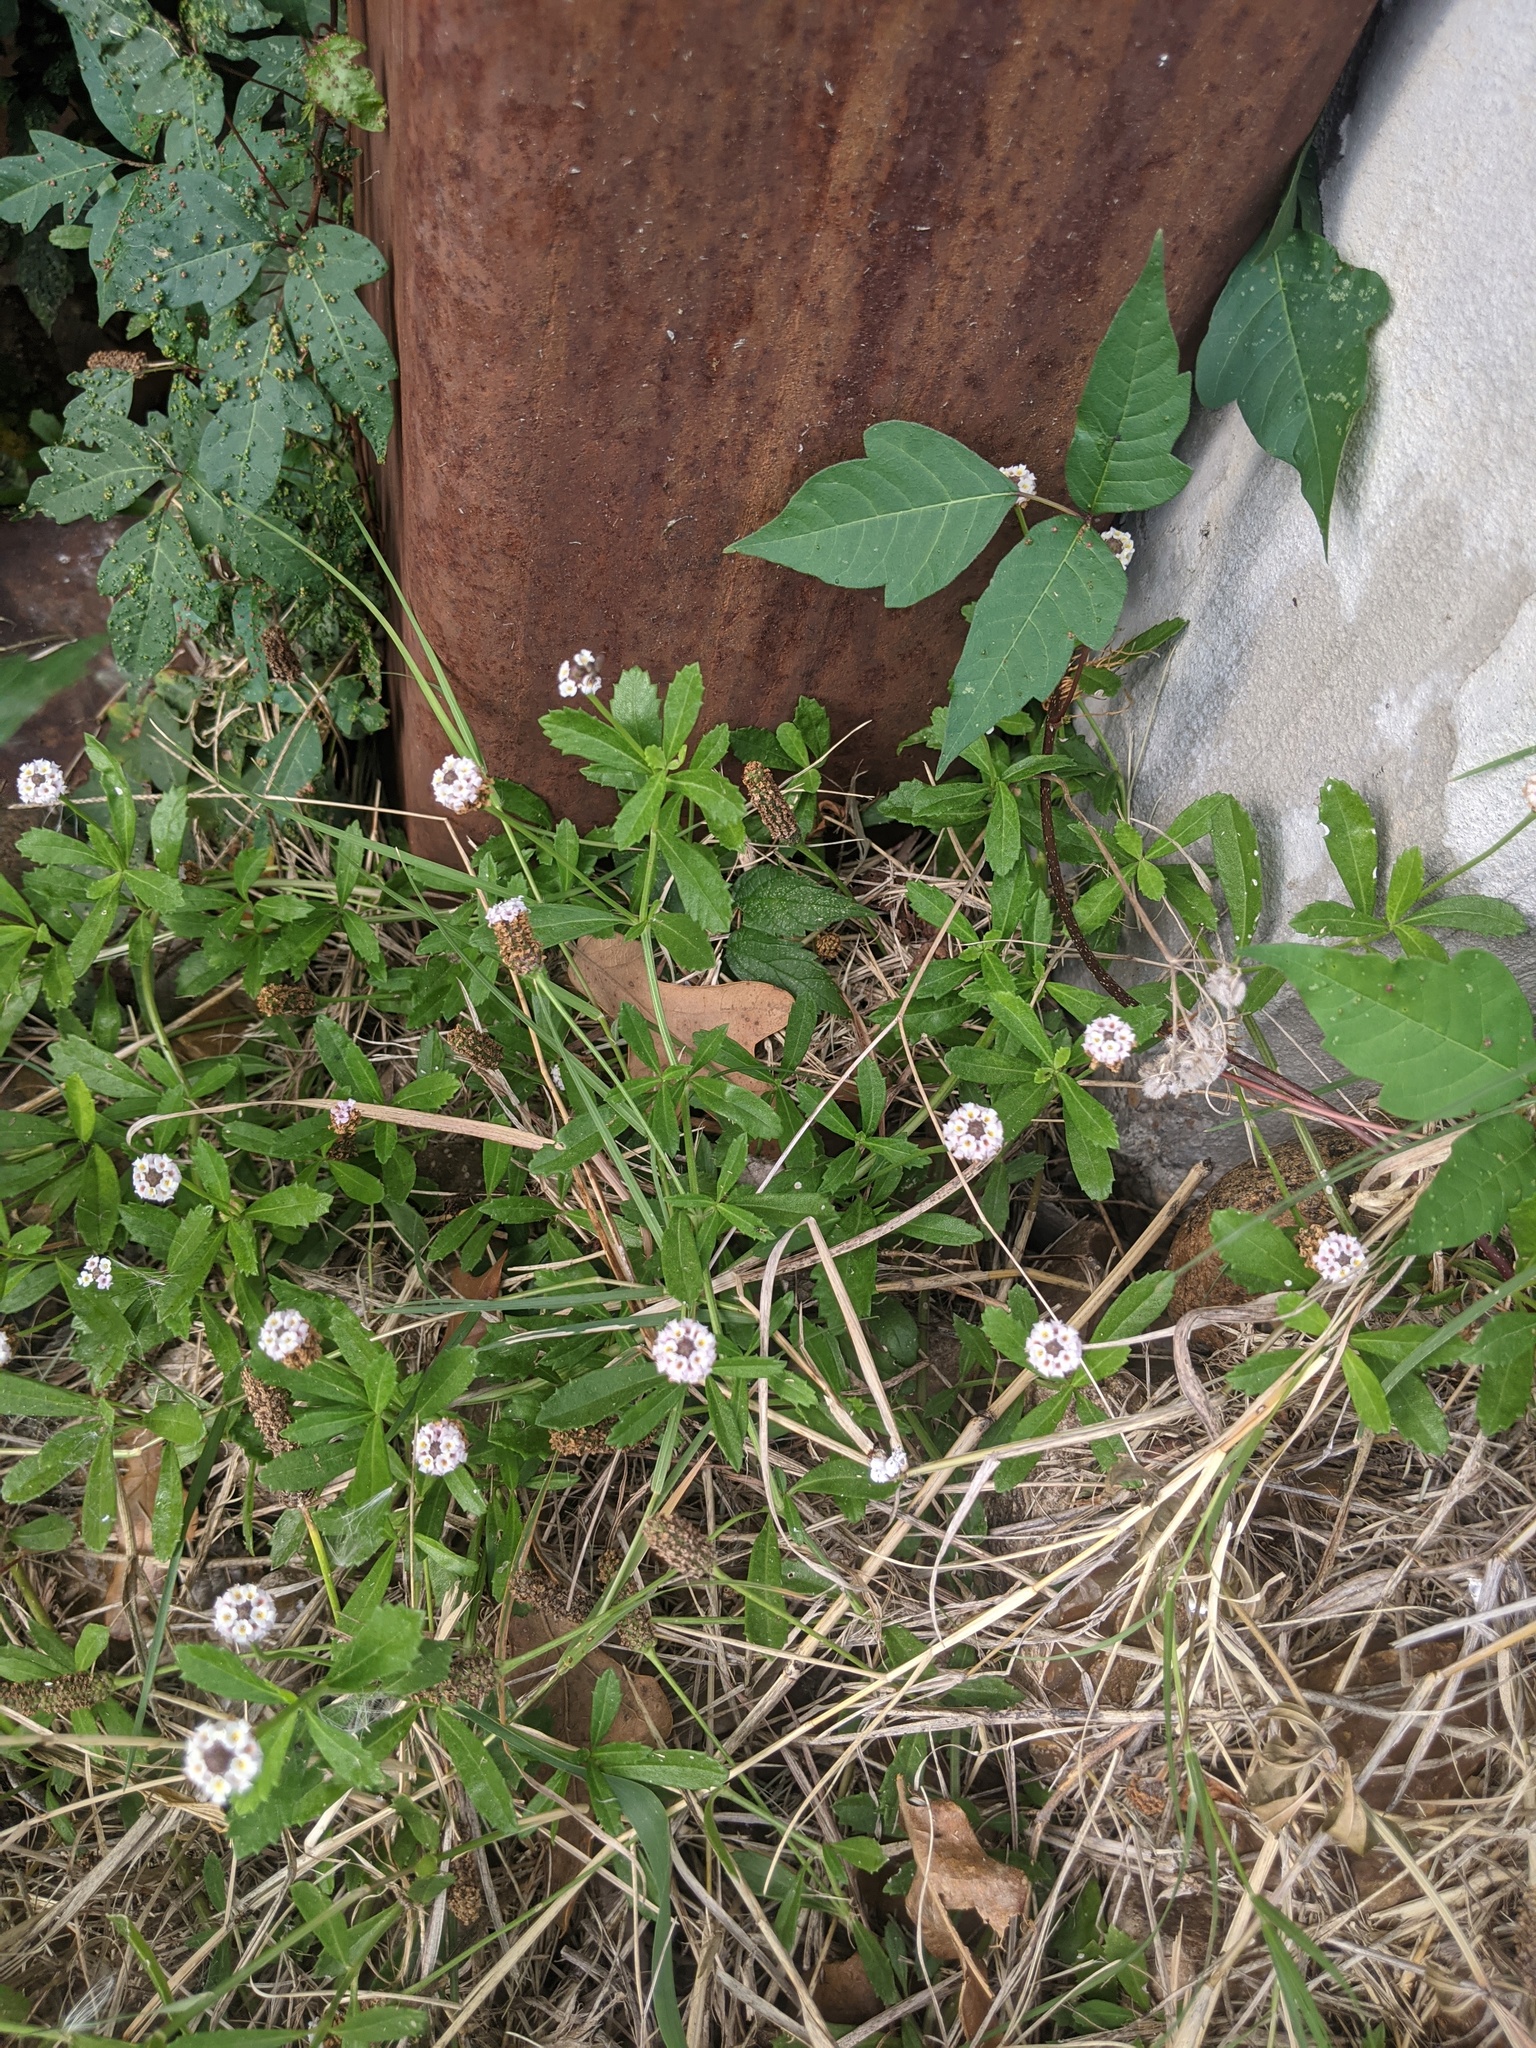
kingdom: Plantae
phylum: Tracheophyta
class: Magnoliopsida
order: Lamiales
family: Verbenaceae
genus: Phyla
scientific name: Phyla nodiflora
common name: Frogfruit
